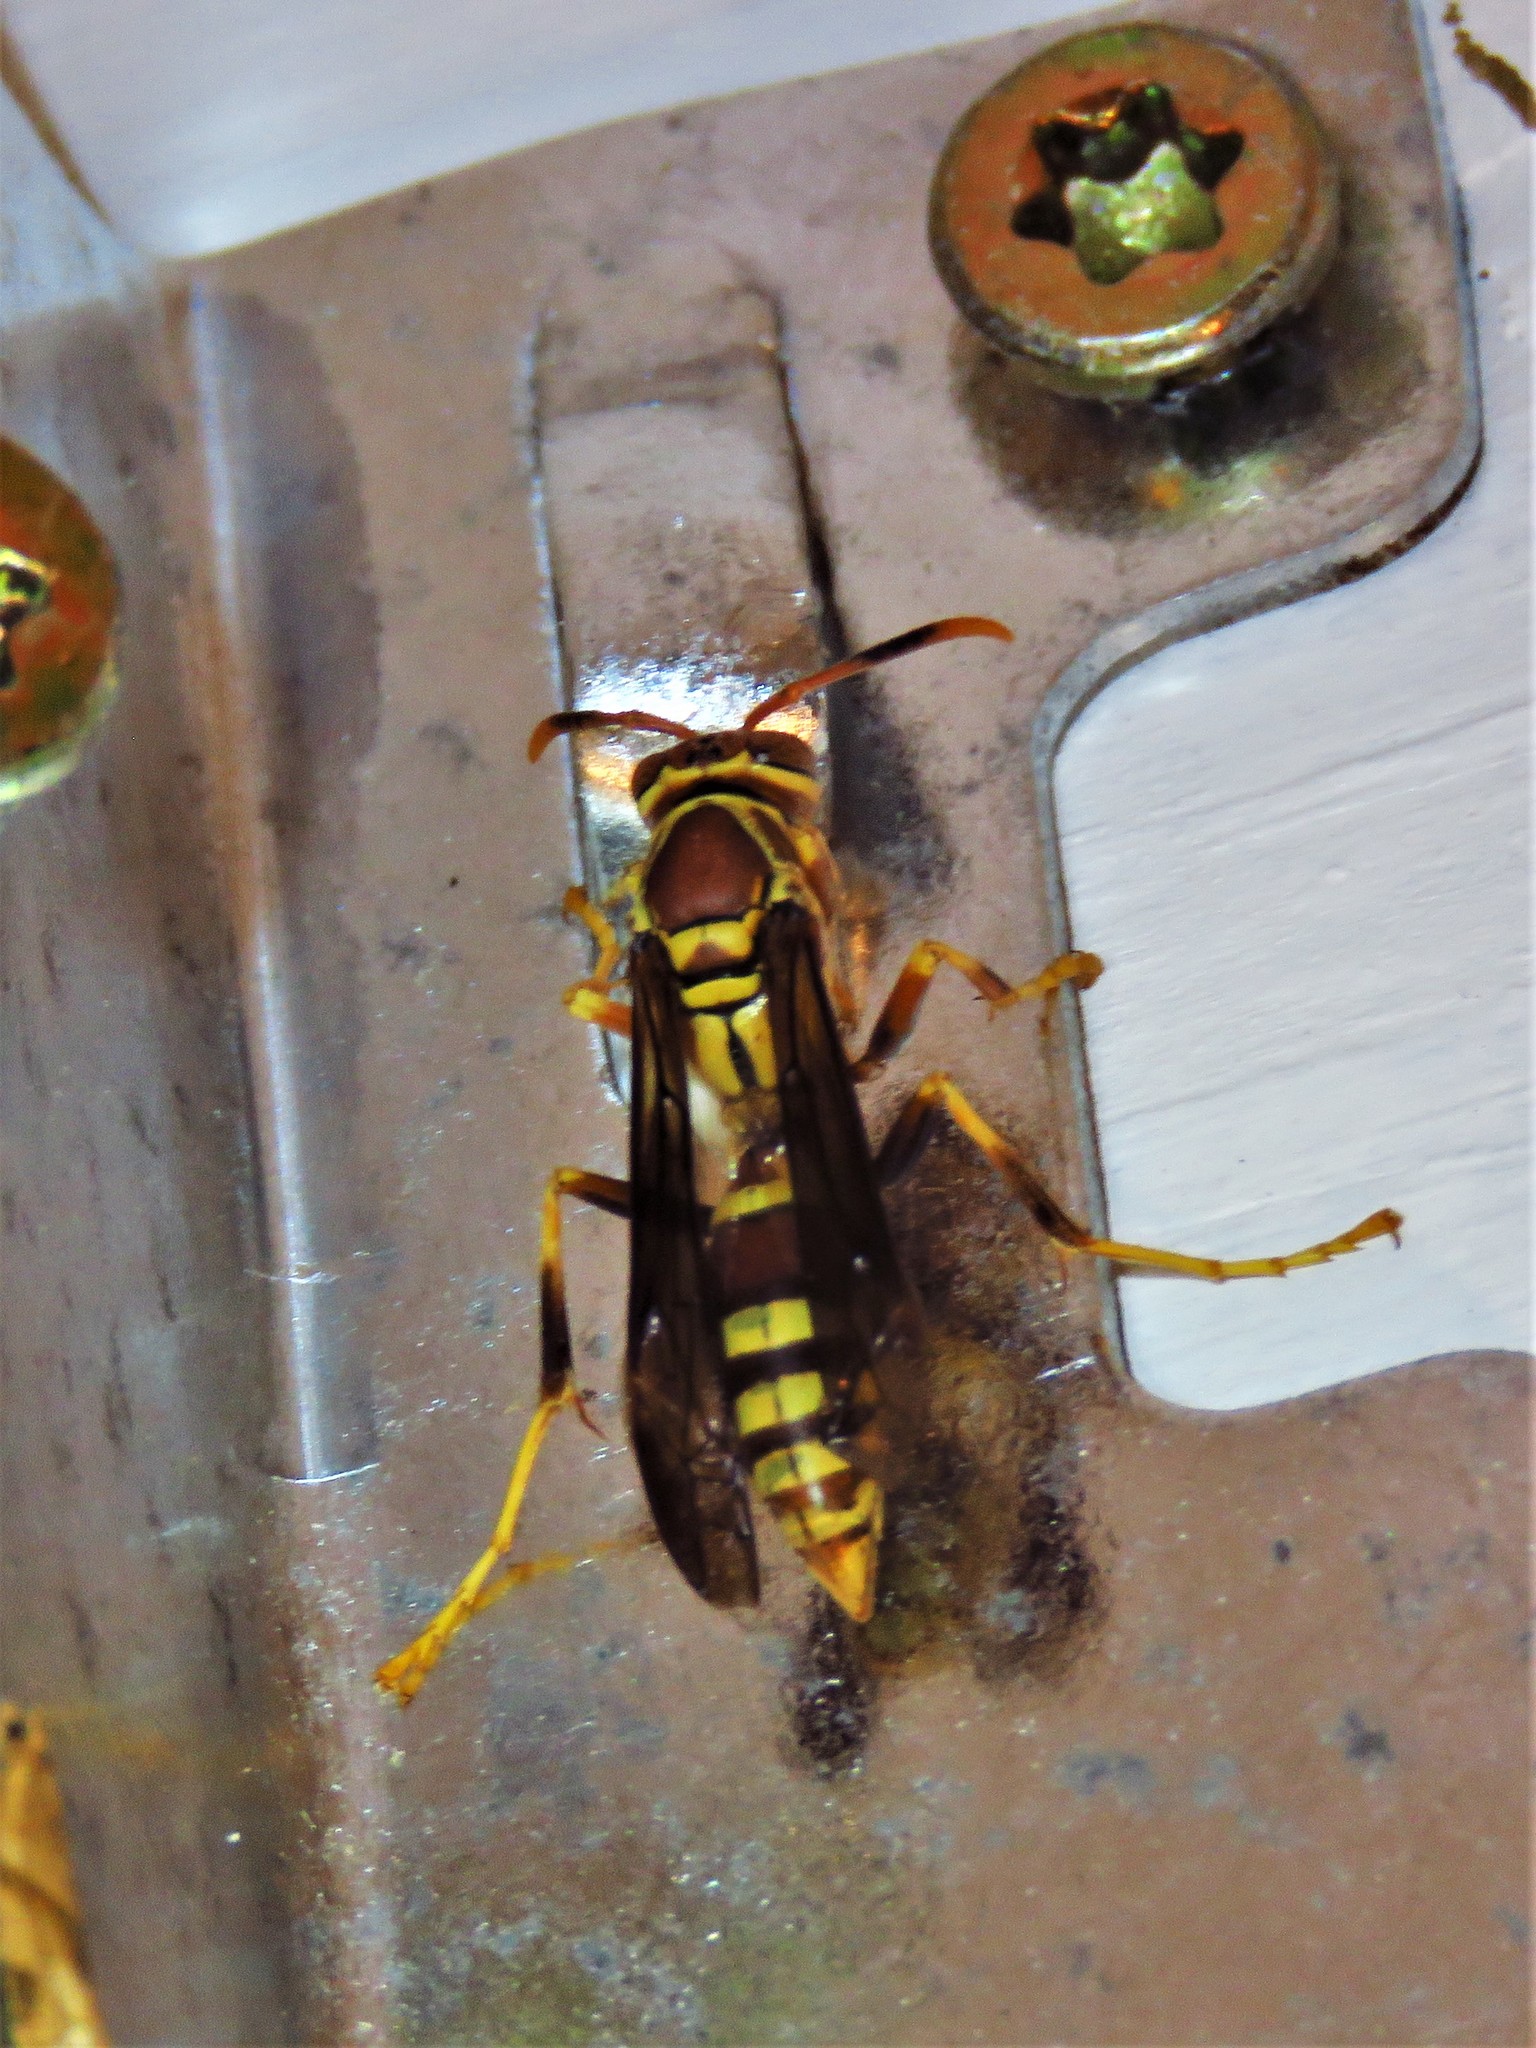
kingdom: Animalia
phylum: Arthropoda
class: Insecta
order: Hymenoptera
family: Eumenidae
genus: Polistes
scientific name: Polistes exclamans
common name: Paper wasp
